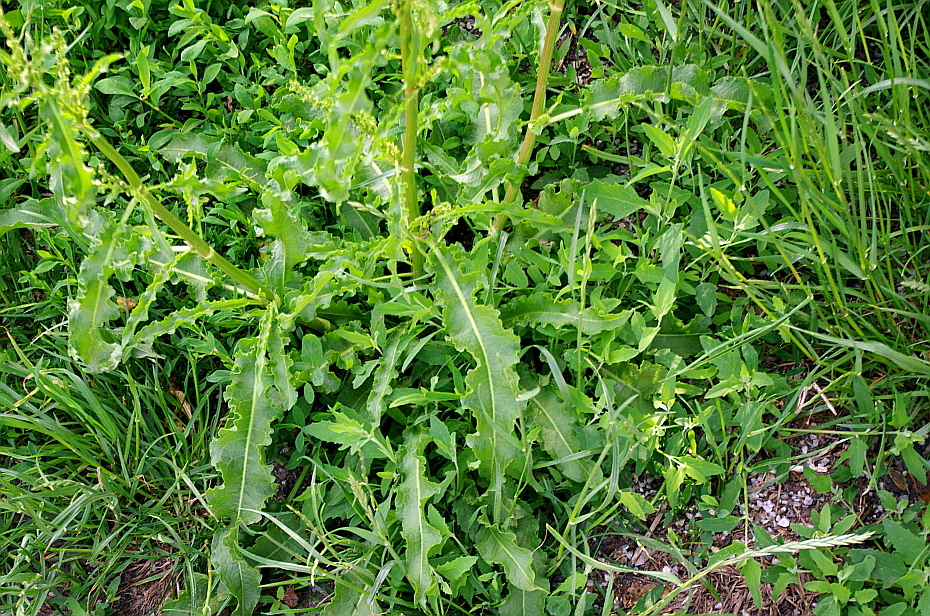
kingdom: Plantae
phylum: Tracheophyta
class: Magnoliopsida
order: Caryophyllales
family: Polygonaceae
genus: Rumex
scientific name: Rumex crispus
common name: Curled dock
